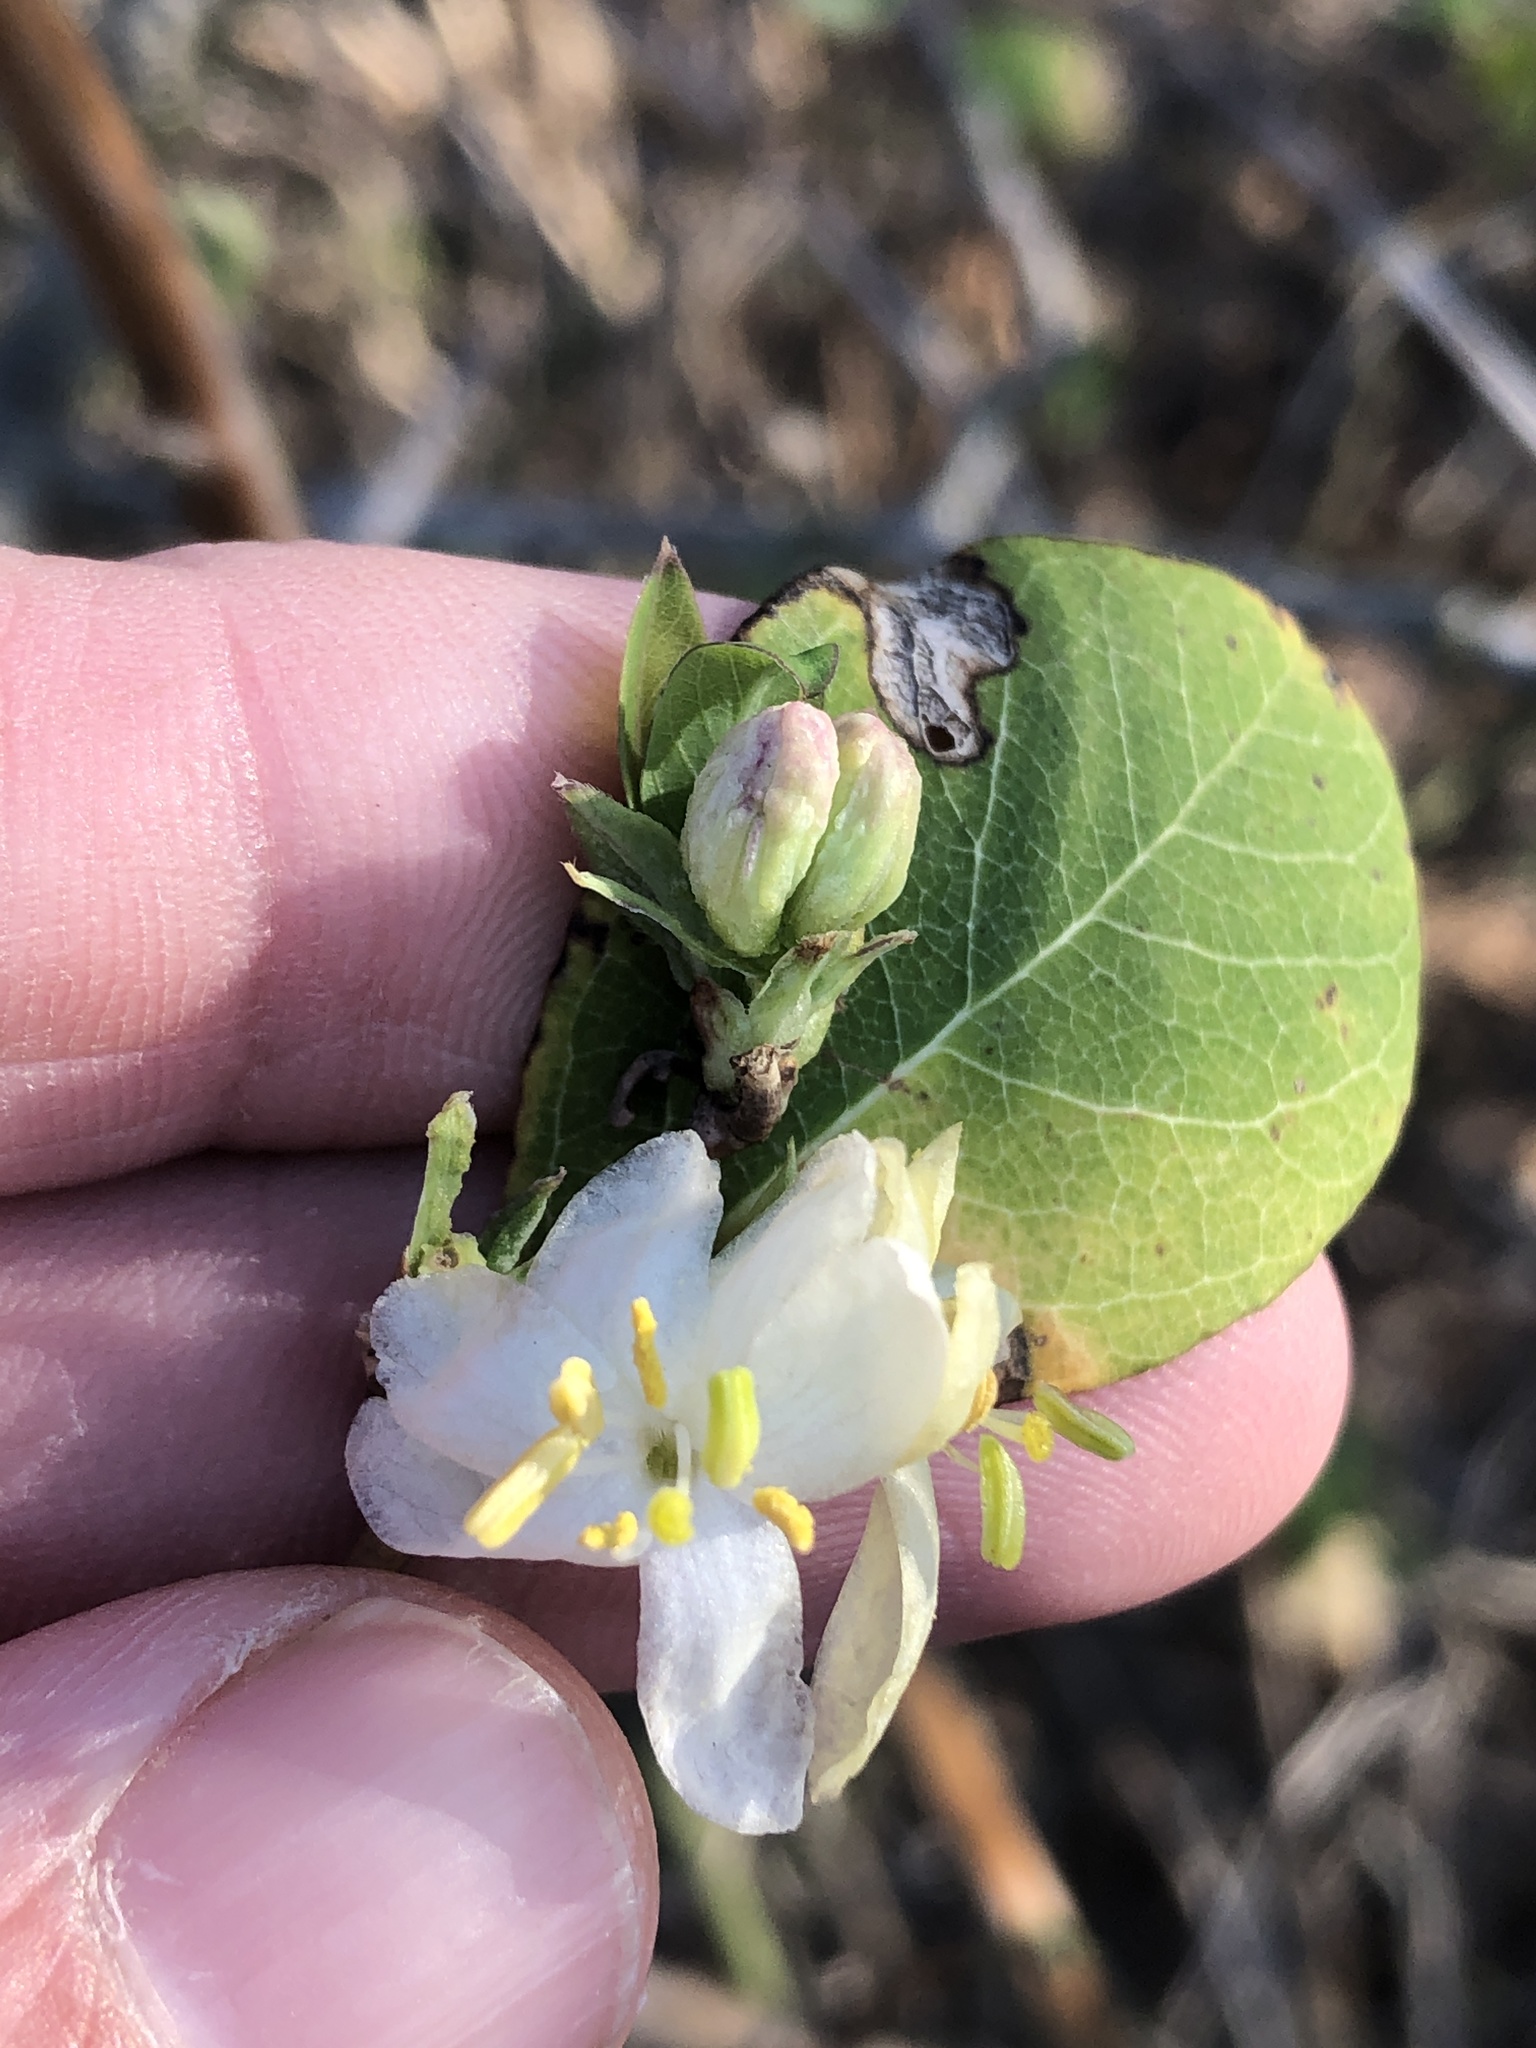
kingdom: Plantae
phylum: Tracheophyta
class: Magnoliopsida
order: Dipsacales
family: Caprifoliaceae
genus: Lonicera
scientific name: Lonicera fragrantissima
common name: Fragrant honeysuckle
